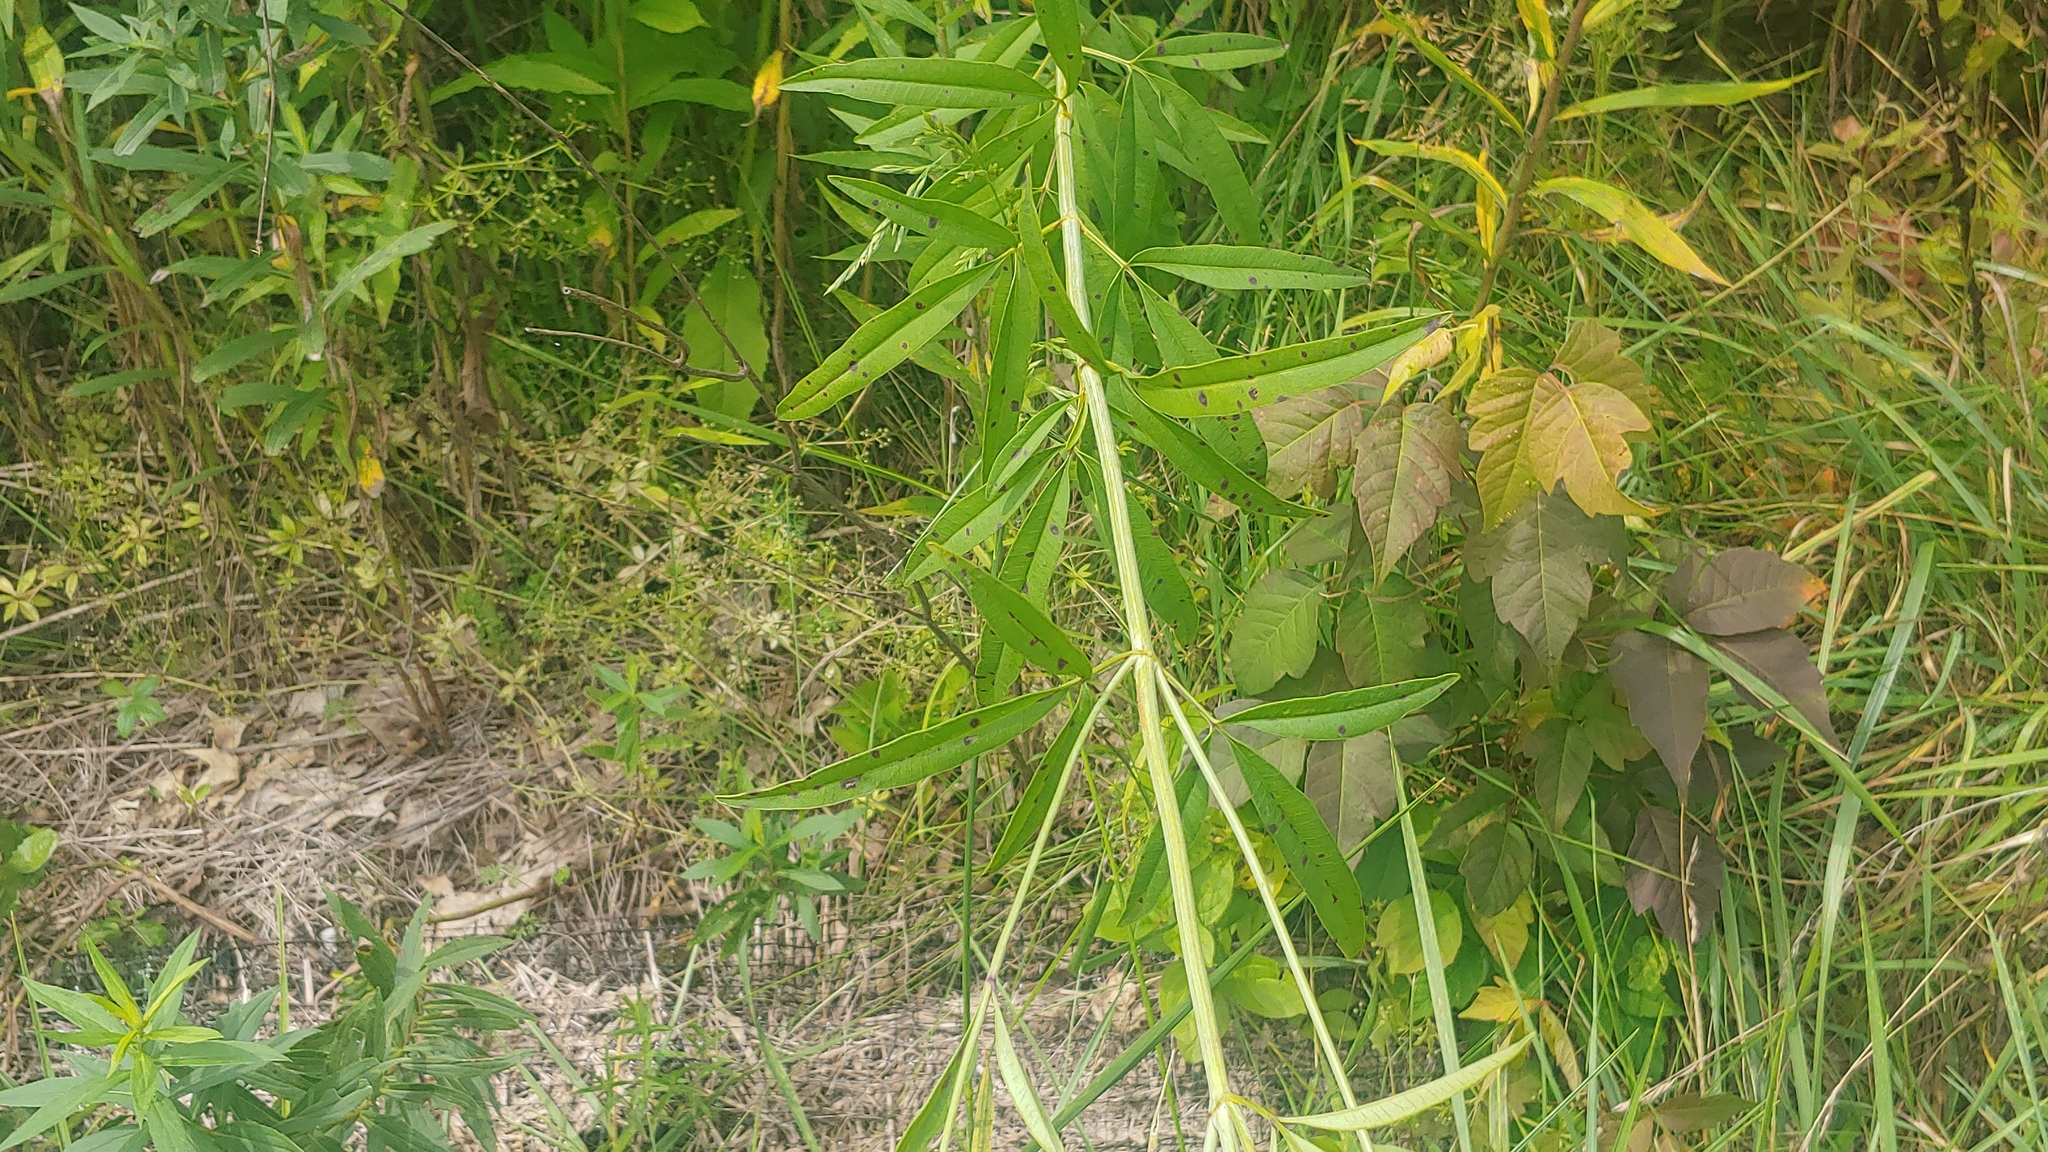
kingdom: Plantae
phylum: Tracheophyta
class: Magnoliopsida
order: Asterales
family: Asteraceae
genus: Coreopsis
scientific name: Coreopsis tripteris
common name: Tall coreopsis
